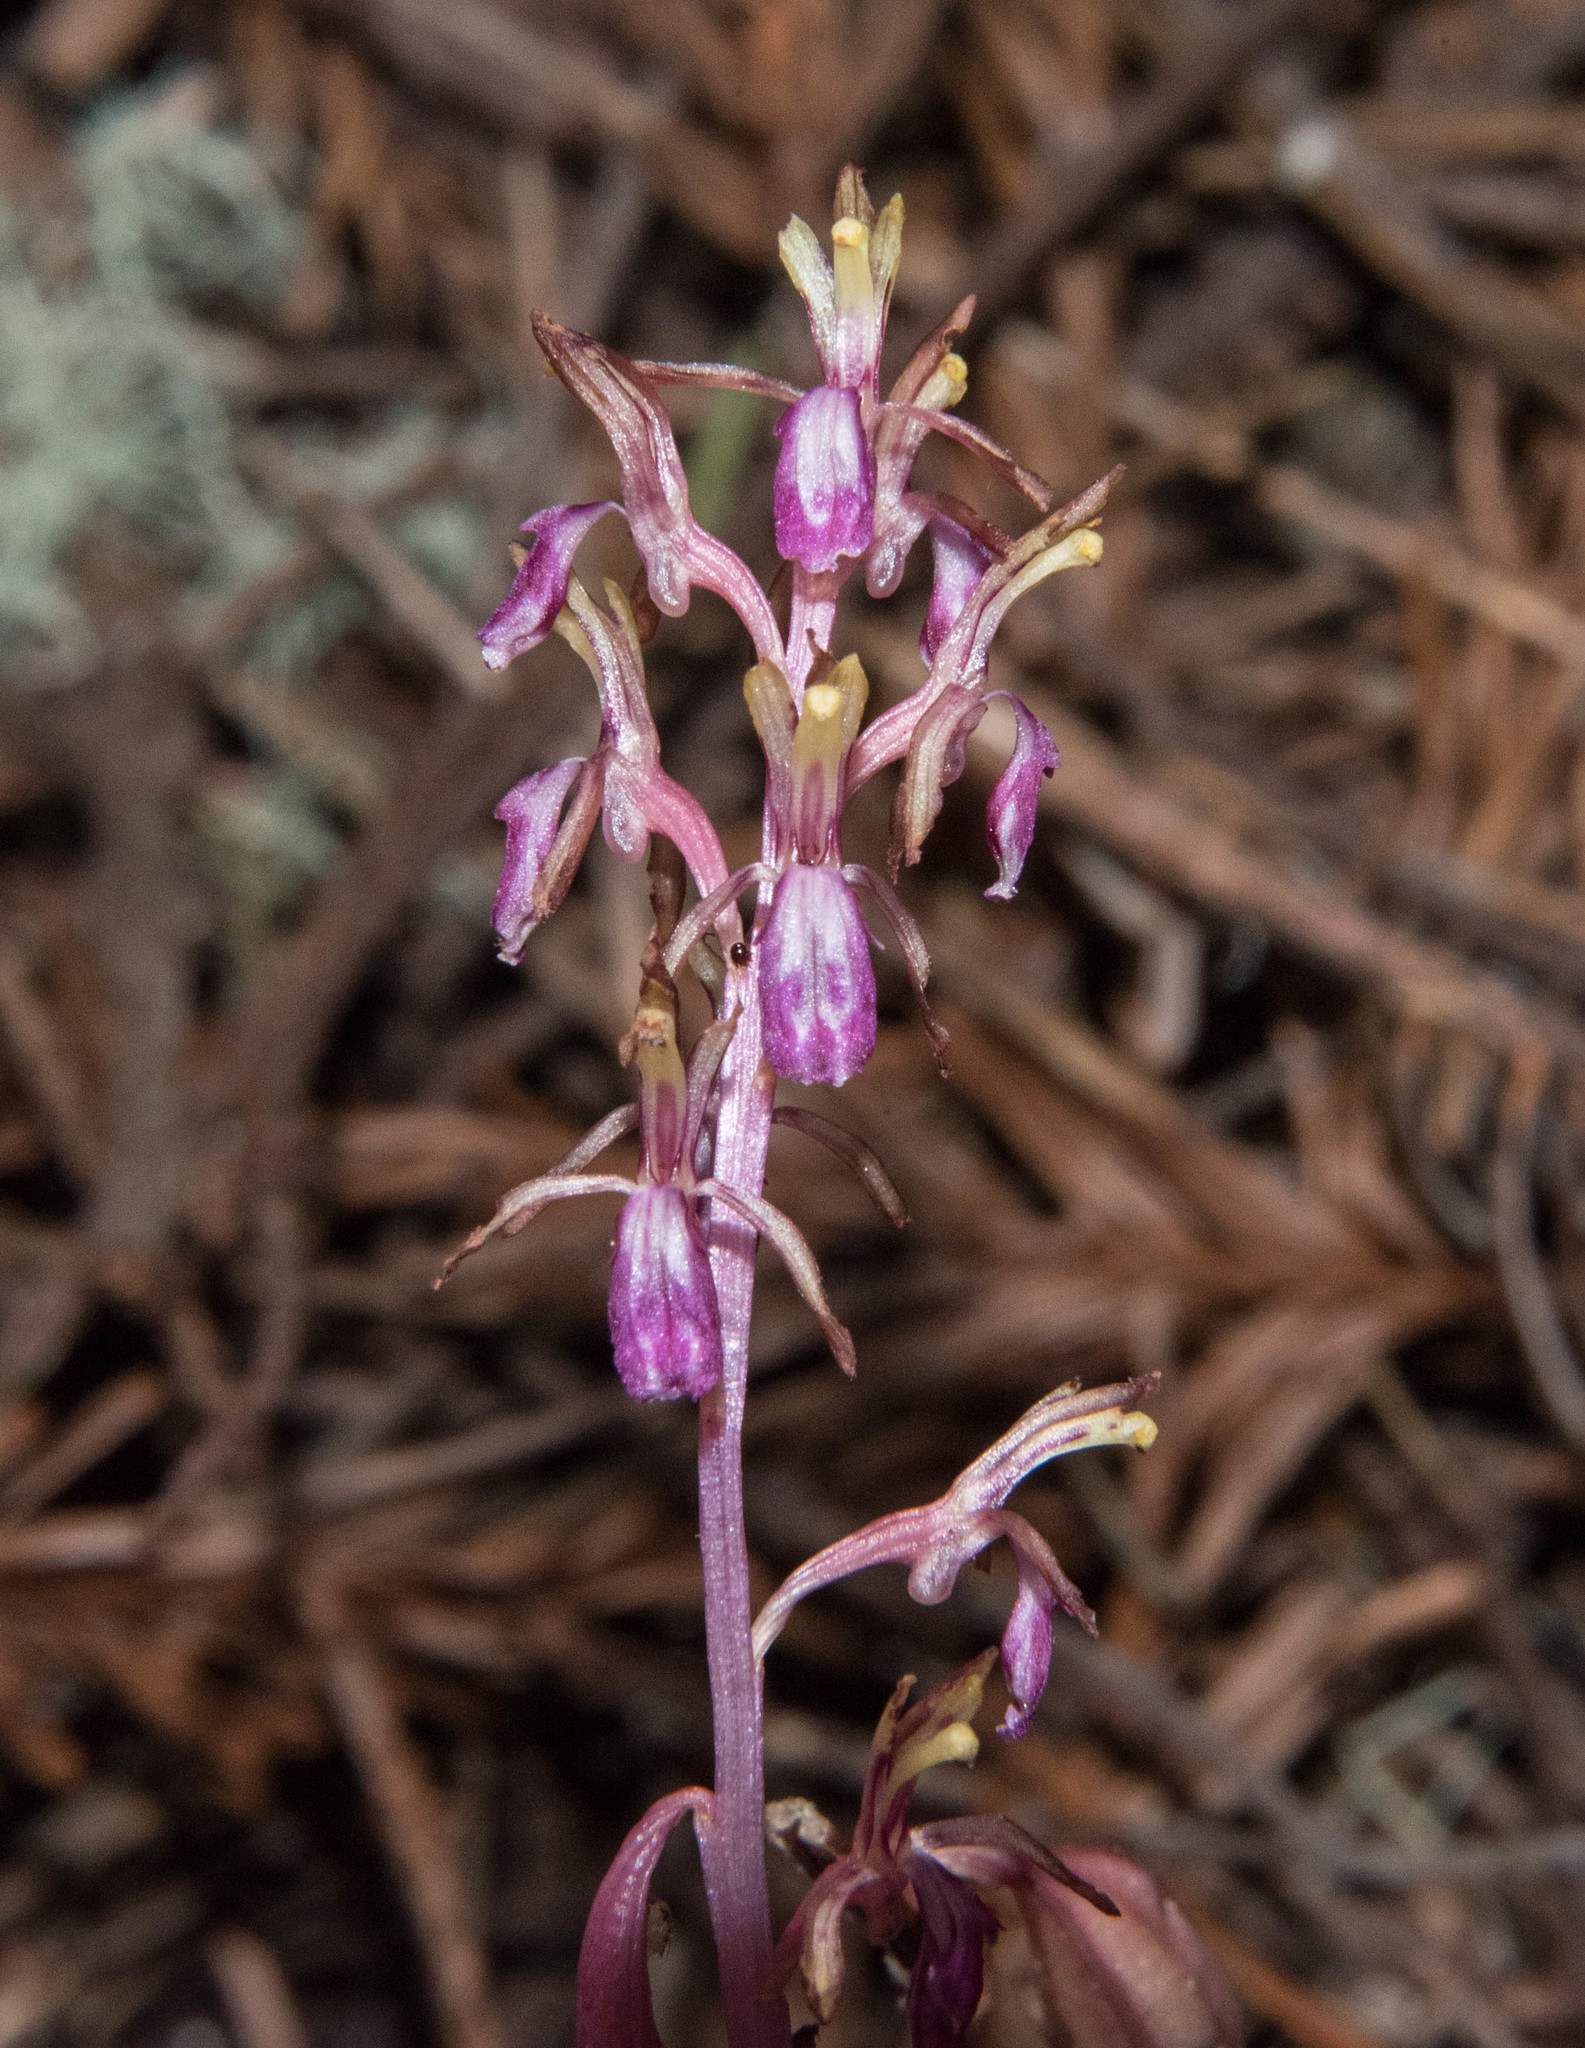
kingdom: Plantae
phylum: Tracheophyta
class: Liliopsida
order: Asparagales
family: Orchidaceae
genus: Corallorhiza
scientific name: Corallorhiza mertensiana
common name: Pacific coralroot
